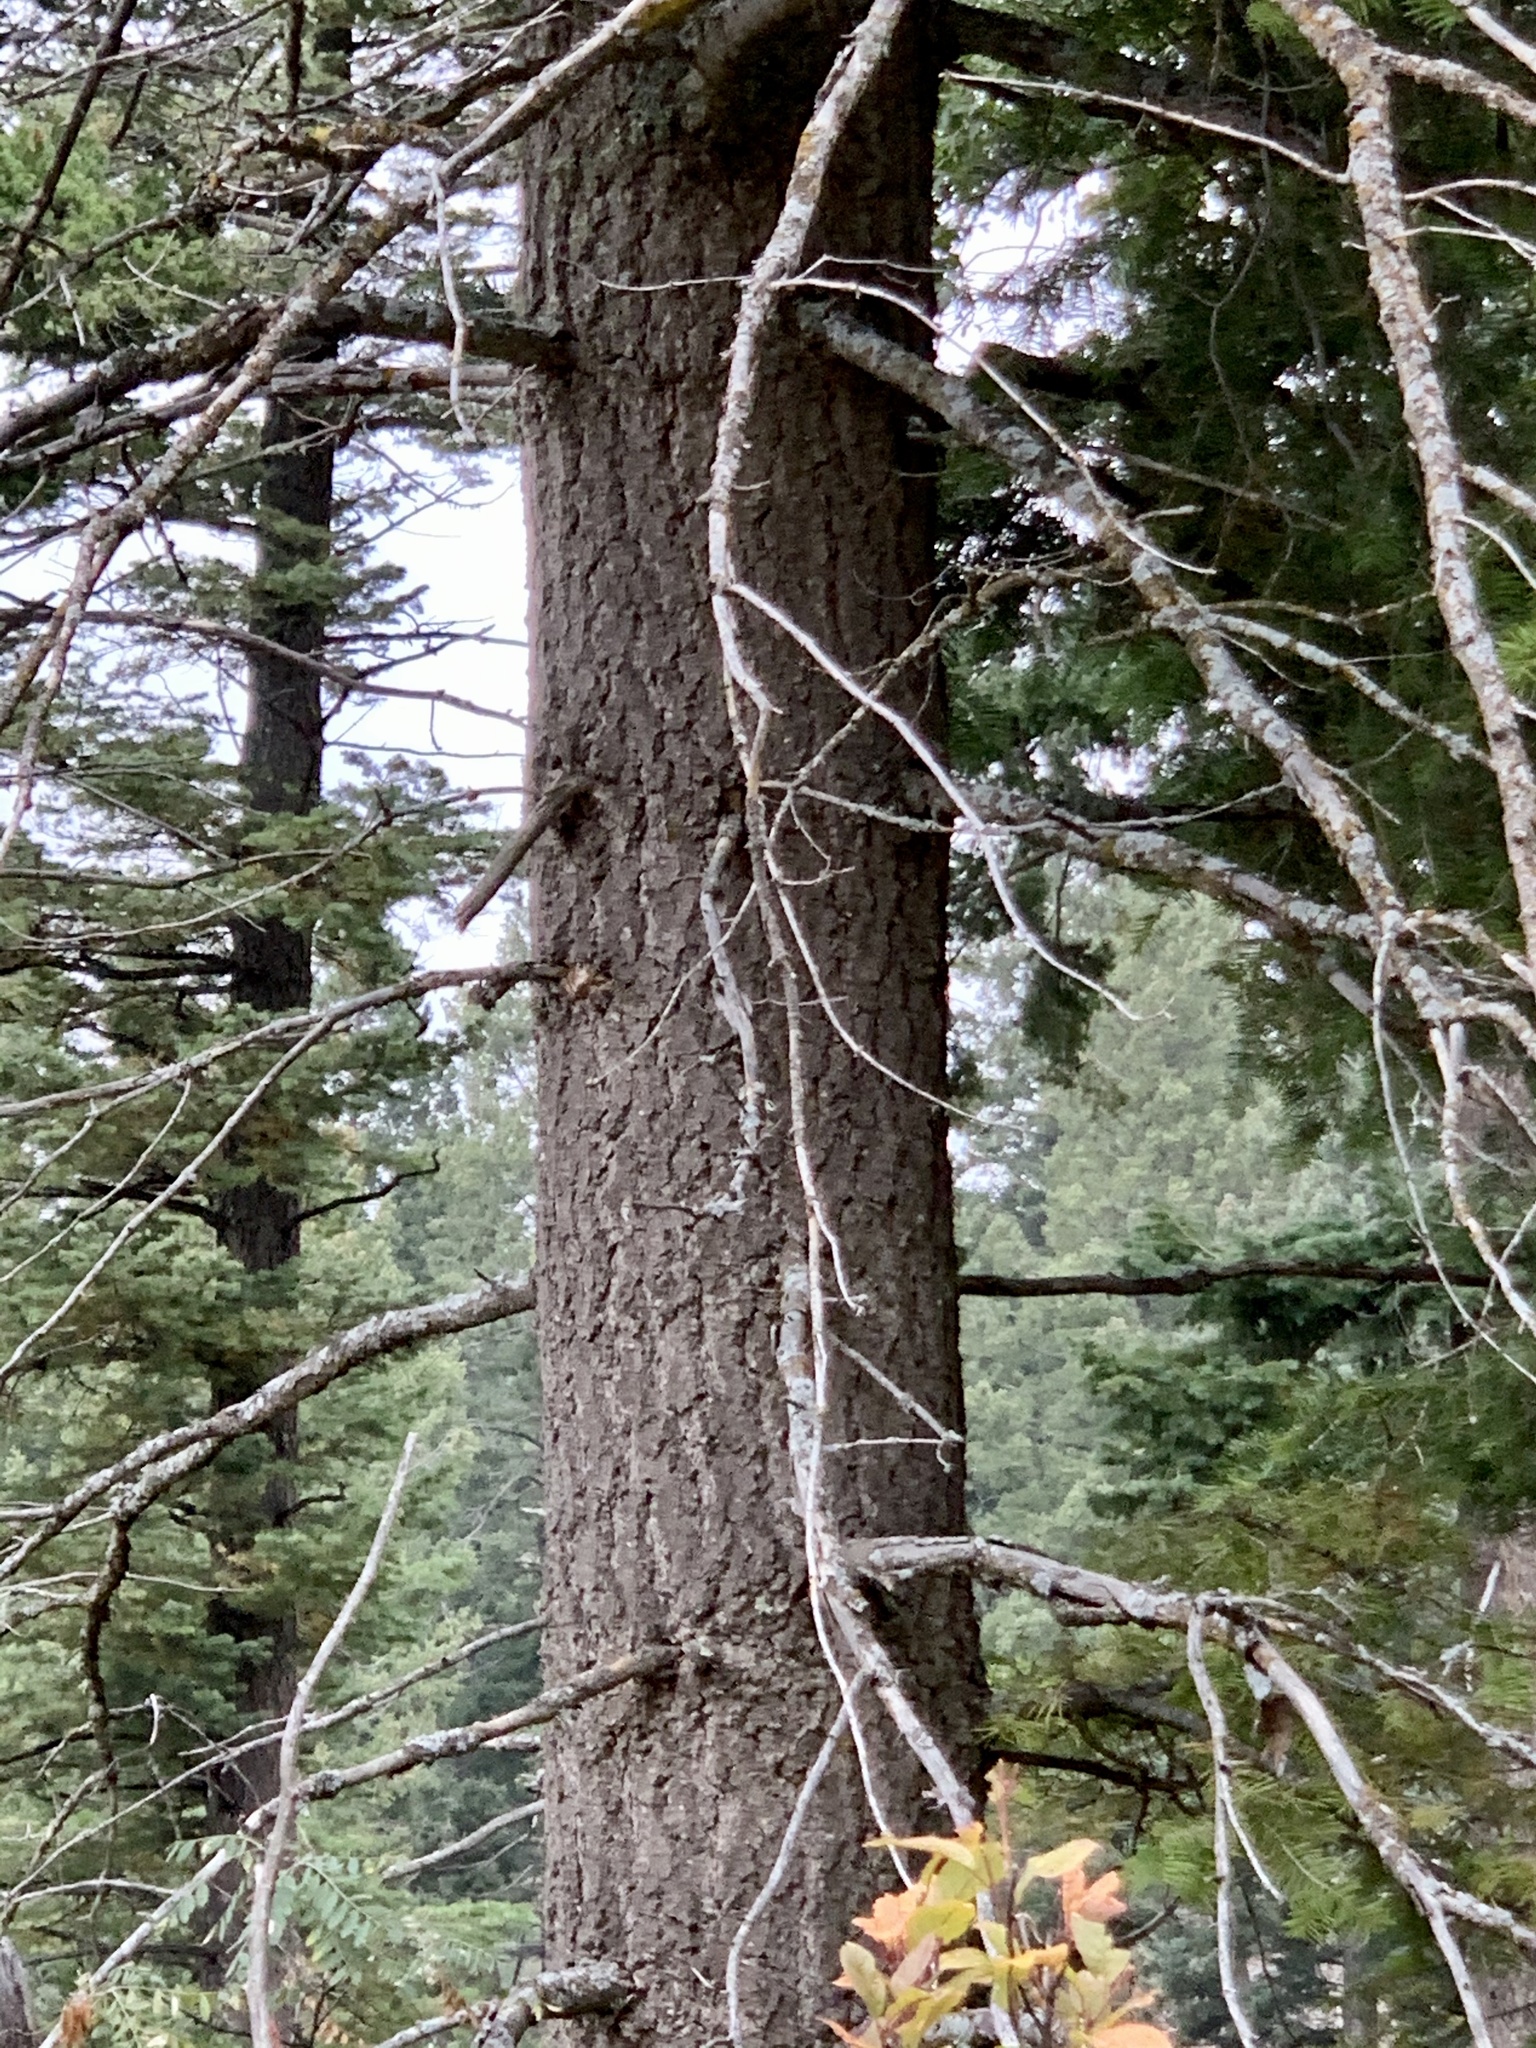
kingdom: Plantae
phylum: Tracheophyta
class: Pinopsida
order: Pinales
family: Pinaceae
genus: Abies
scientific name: Abies concolor
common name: Colorado fir
